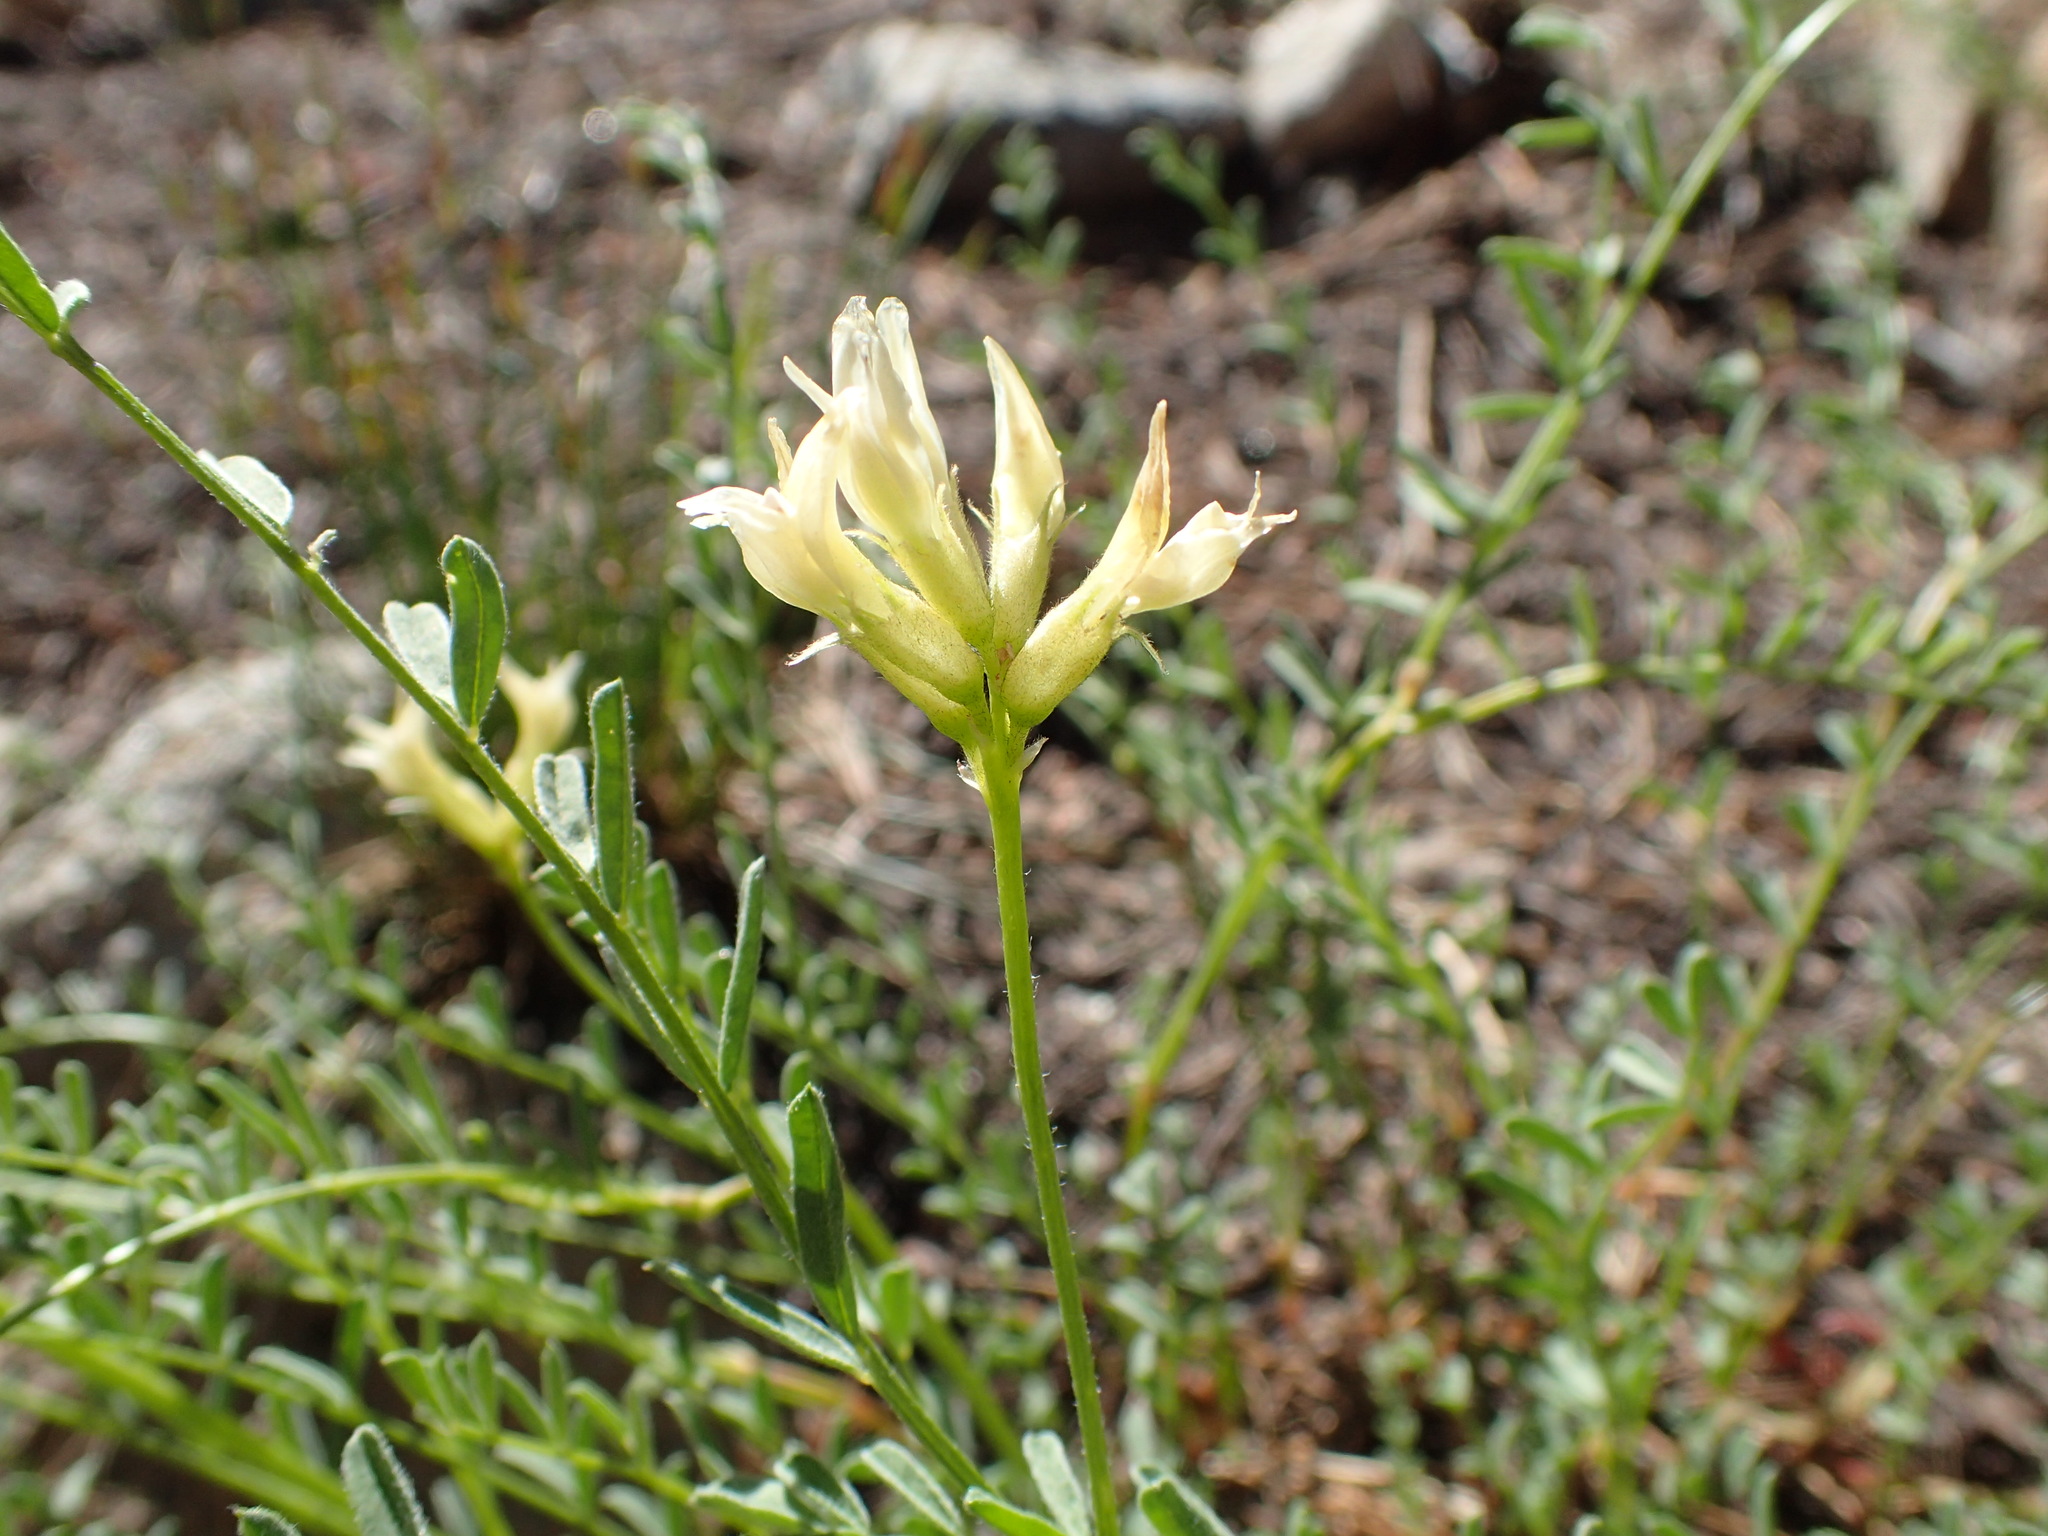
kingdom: Plantae
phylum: Tracheophyta
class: Magnoliopsida
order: Fabales
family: Fabaceae
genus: Astragalus
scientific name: Astragalus bolanderi
